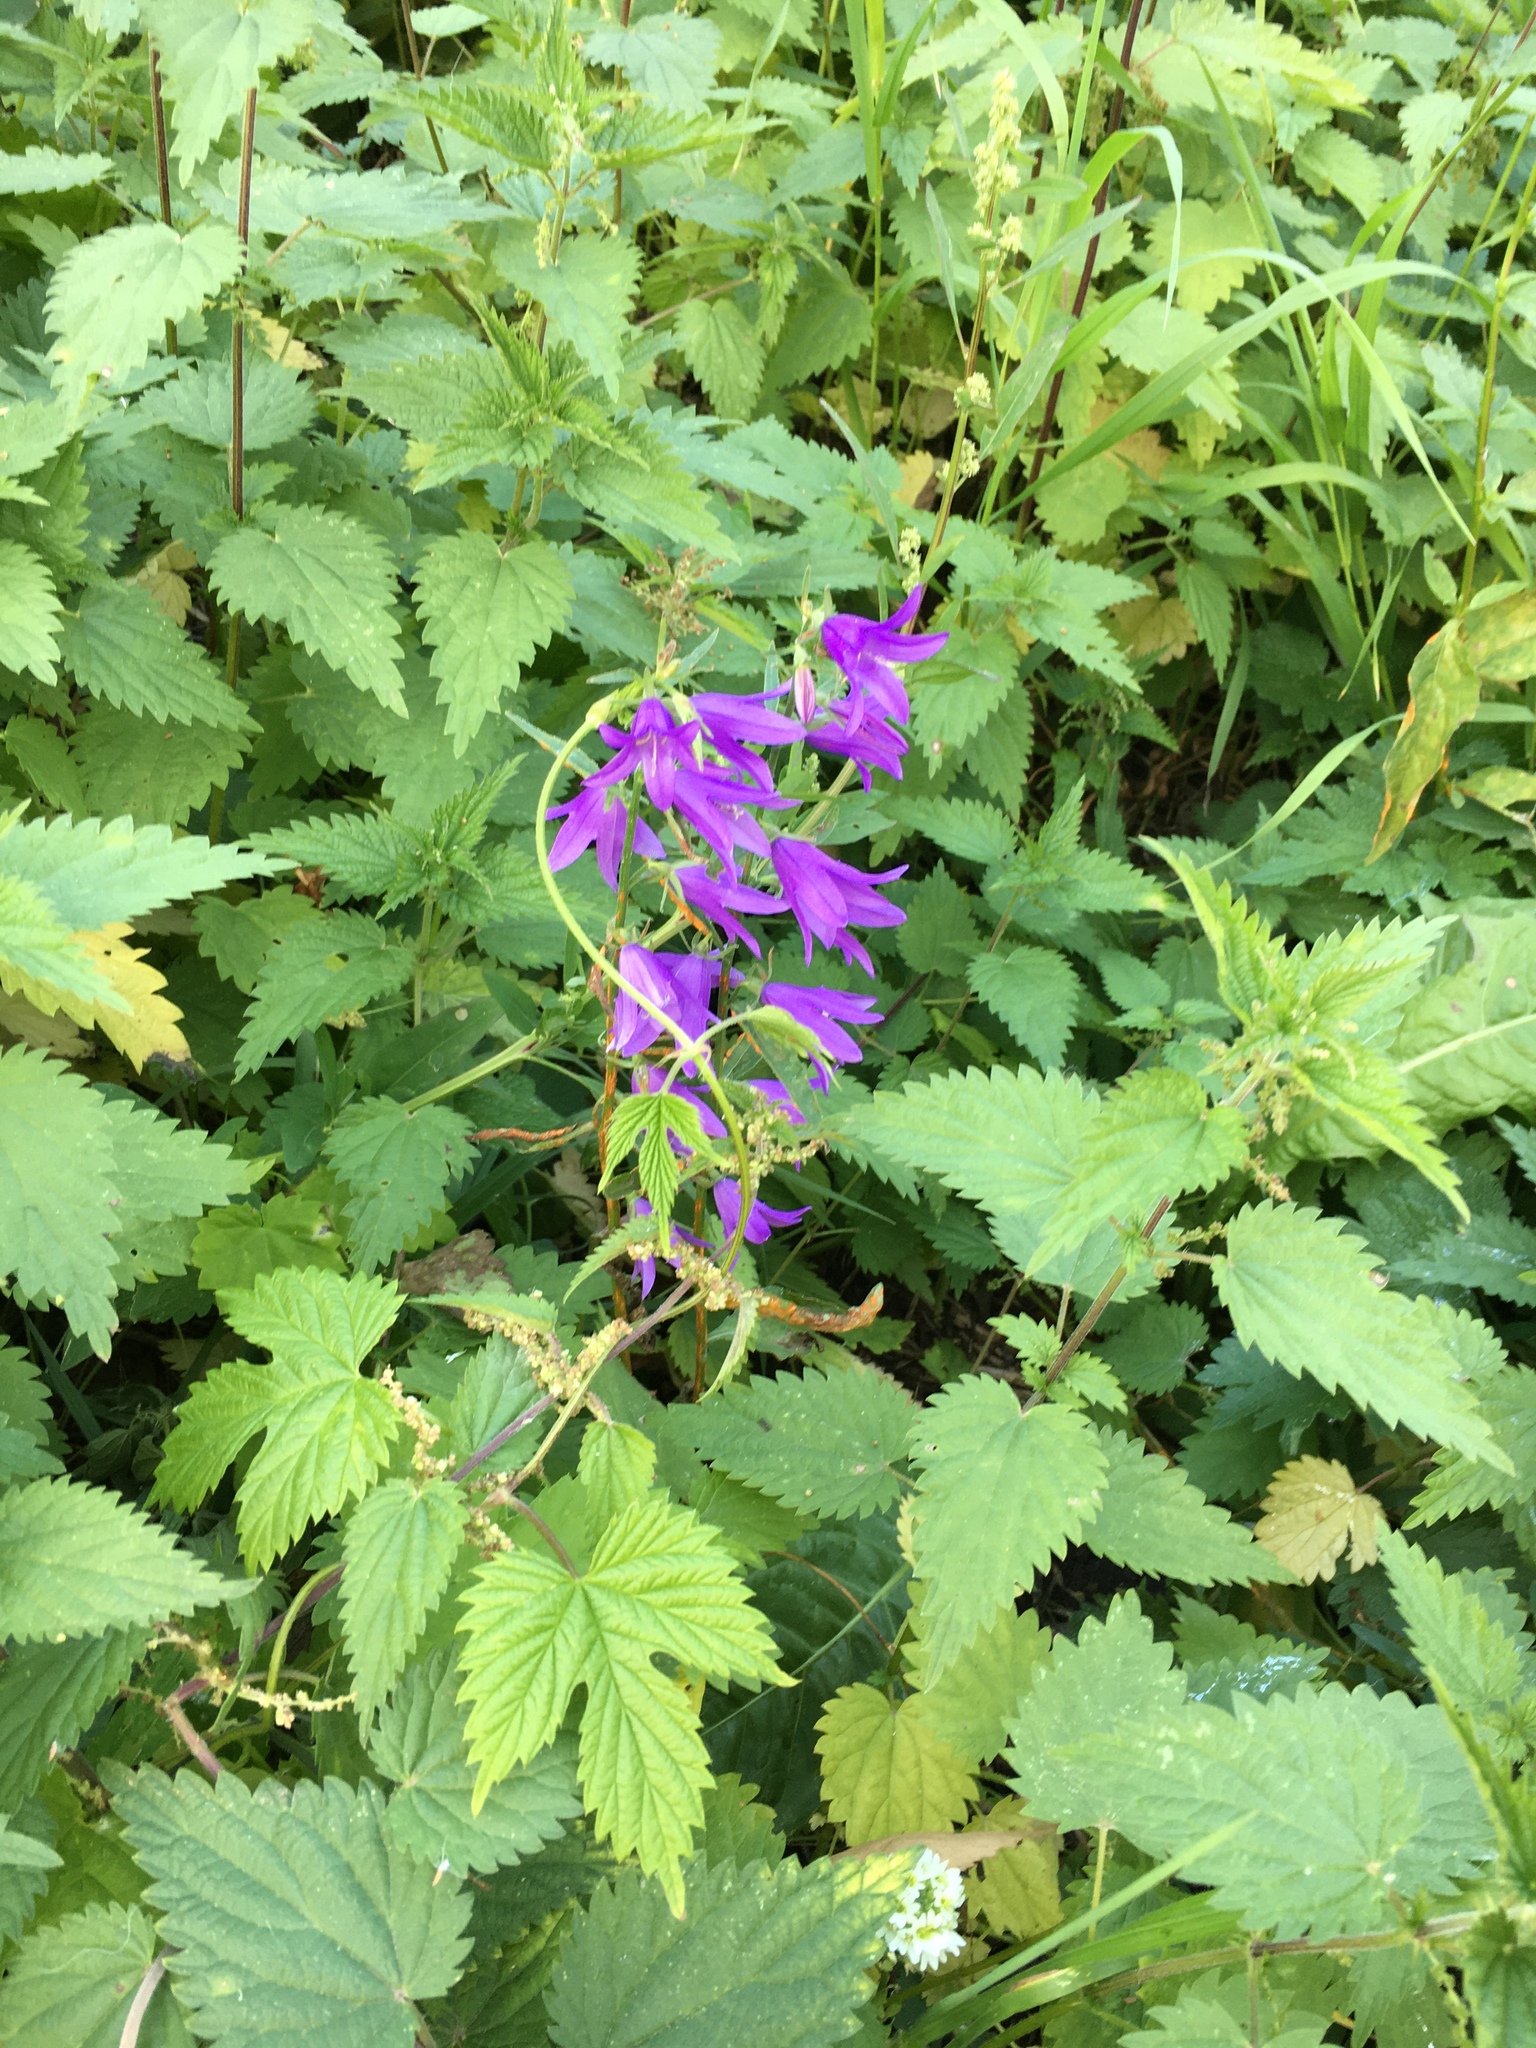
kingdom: Plantae
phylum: Tracheophyta
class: Magnoliopsida
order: Asterales
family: Campanulaceae
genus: Campanula
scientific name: Campanula rapunculoides
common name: Creeping bellflower
